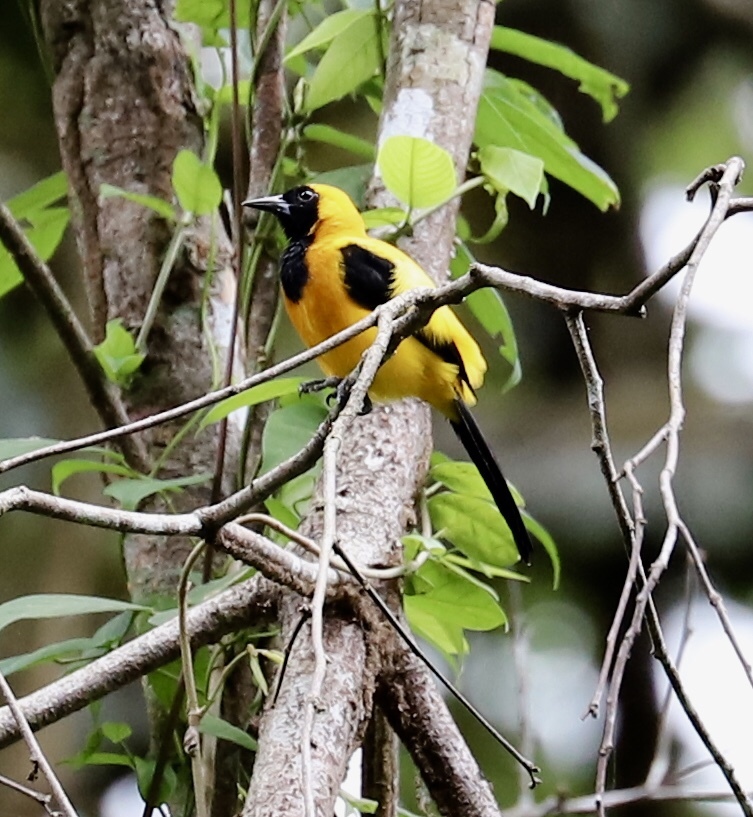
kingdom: Animalia
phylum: Chordata
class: Aves
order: Passeriformes
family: Icteridae
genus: Icterus
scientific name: Icterus chrysater
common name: Yellow-backed oriole
